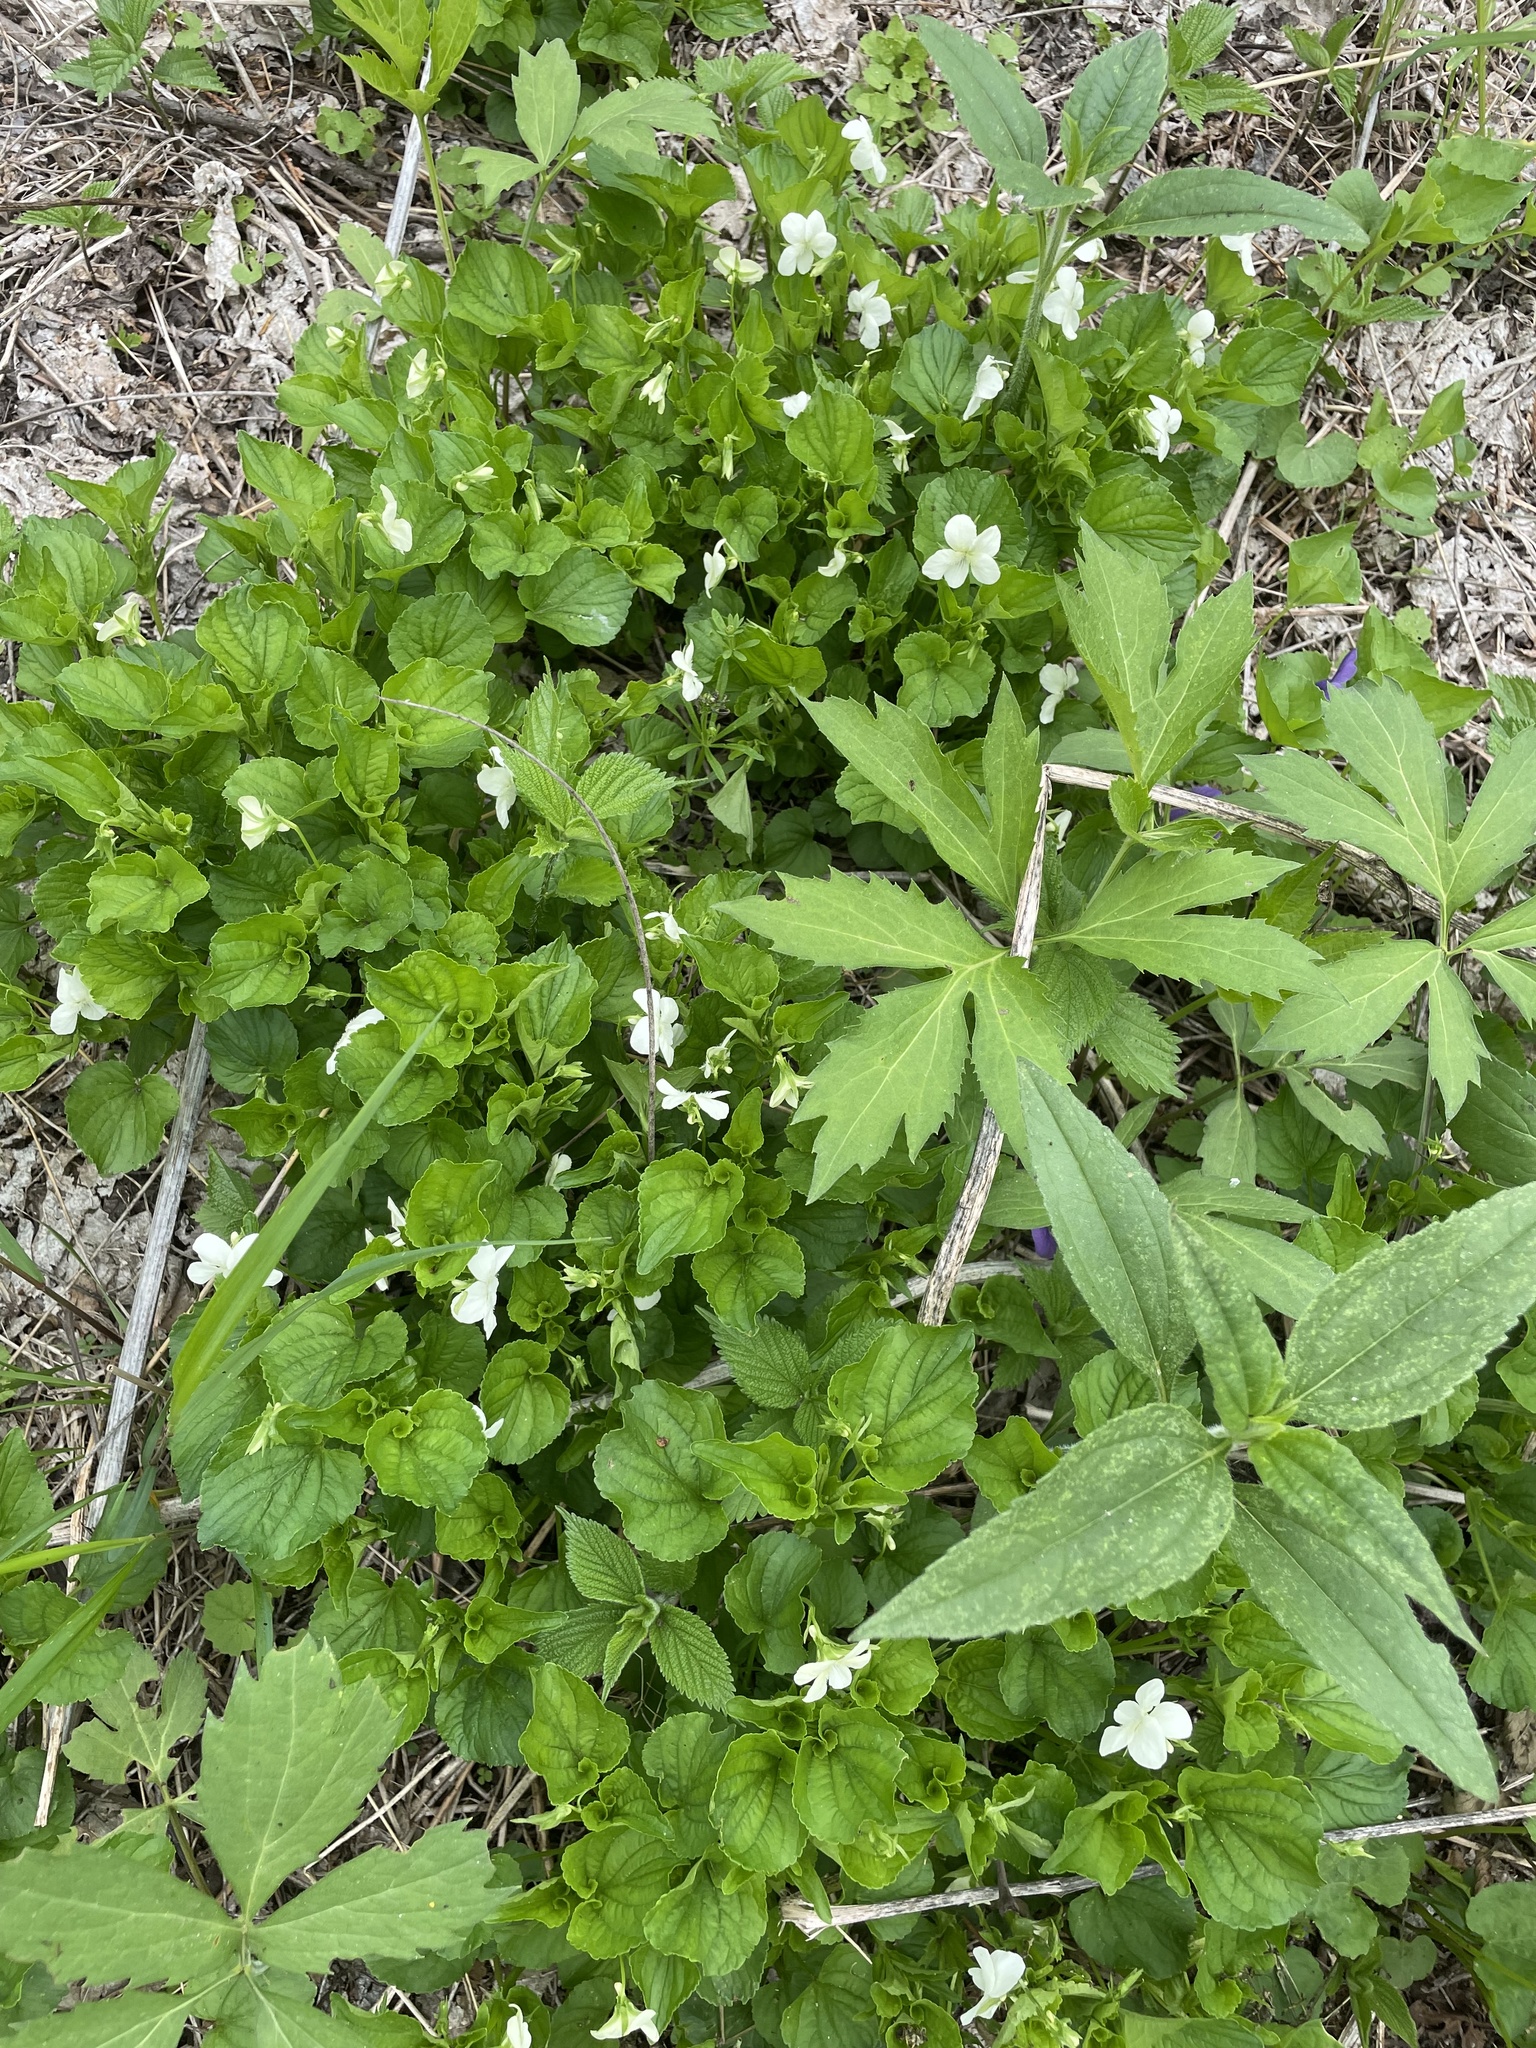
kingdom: Plantae
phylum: Tracheophyta
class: Magnoliopsida
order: Malpighiales
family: Violaceae
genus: Viola
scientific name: Viola striata
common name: Cream violet
